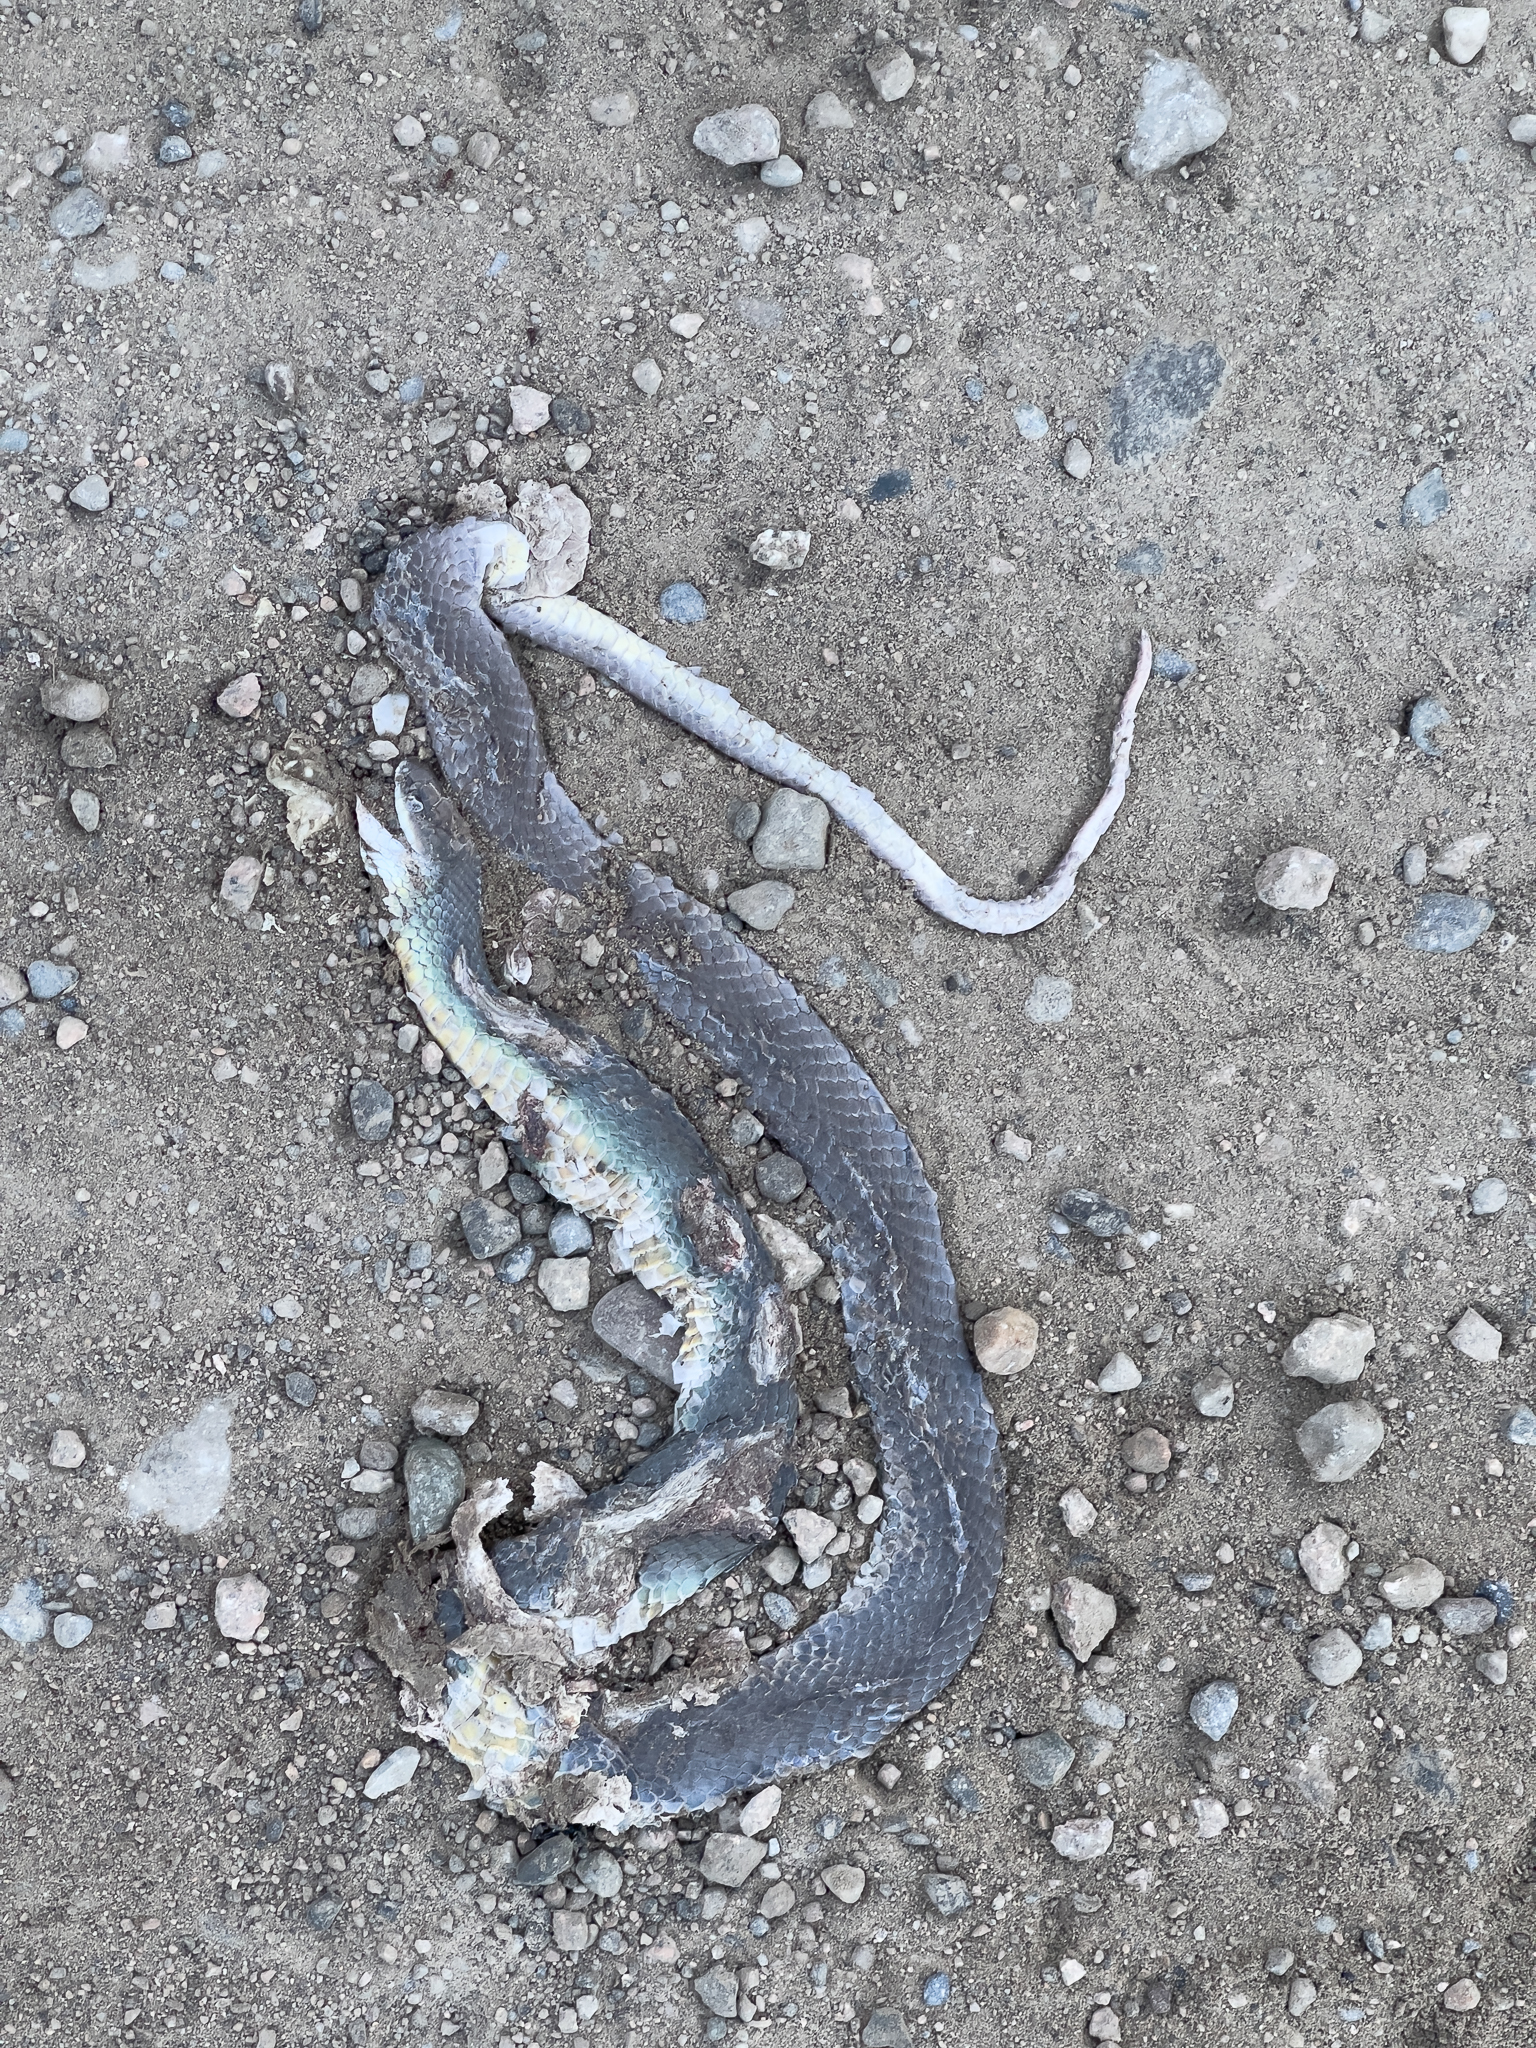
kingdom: Animalia
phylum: Chordata
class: Squamata
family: Colubridae
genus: Coluber
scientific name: Coluber constrictor
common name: Eastern racer
